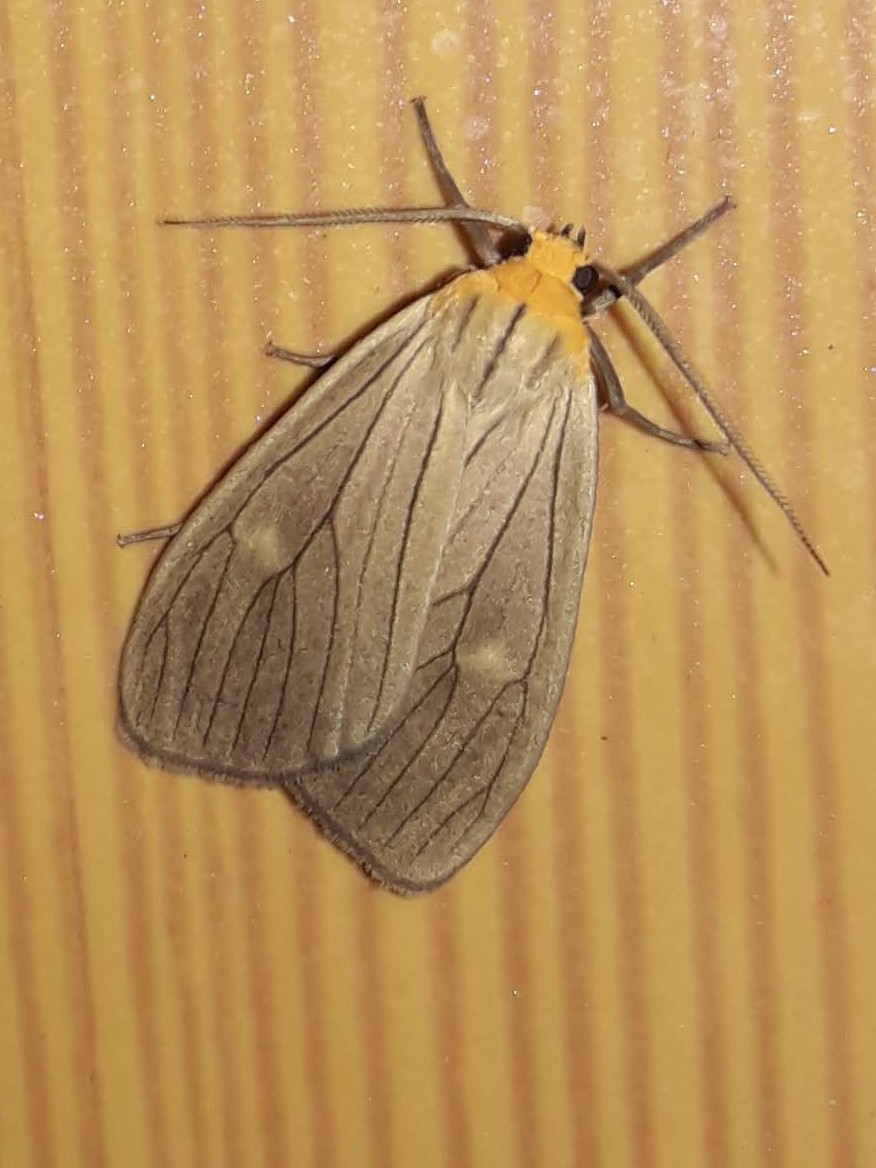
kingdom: Animalia
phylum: Arthropoda
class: Insecta
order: Lepidoptera
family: Erebidae
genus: Opharus
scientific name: Opharus rudis
